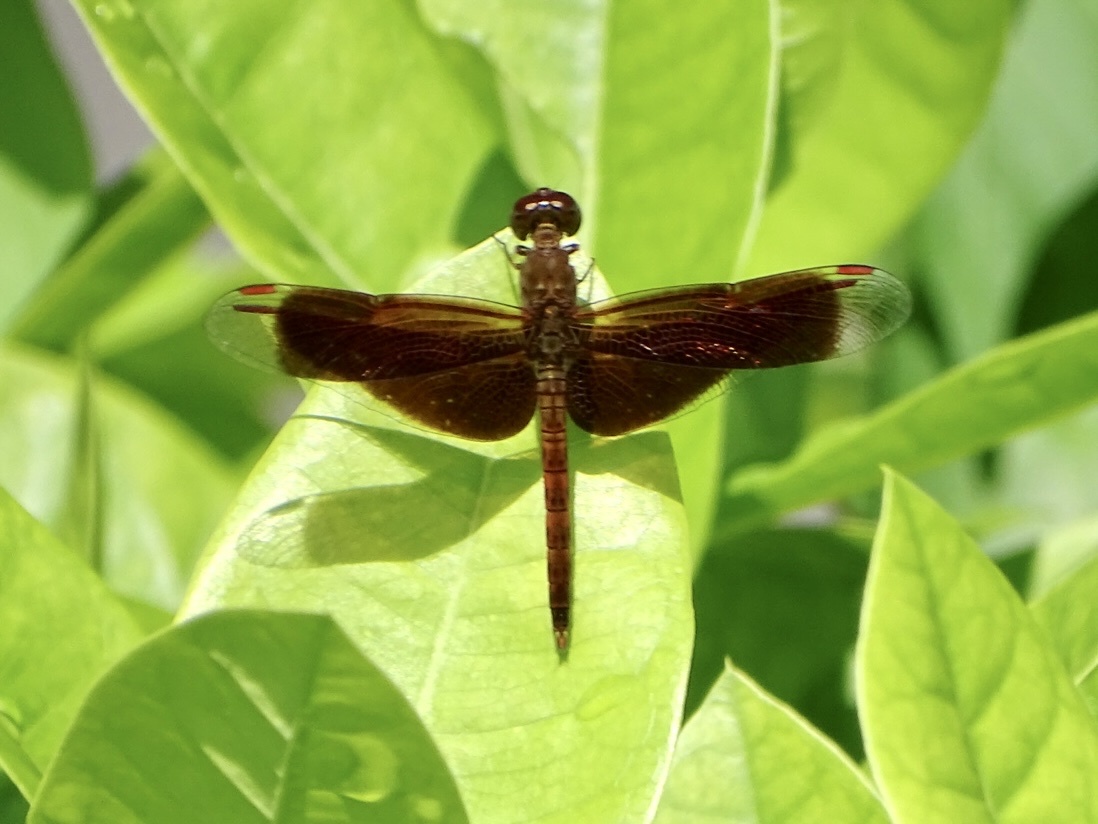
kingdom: Animalia
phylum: Arthropoda
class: Insecta
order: Odonata
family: Libellulidae
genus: Neurothemis
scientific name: Neurothemis fluctuans
